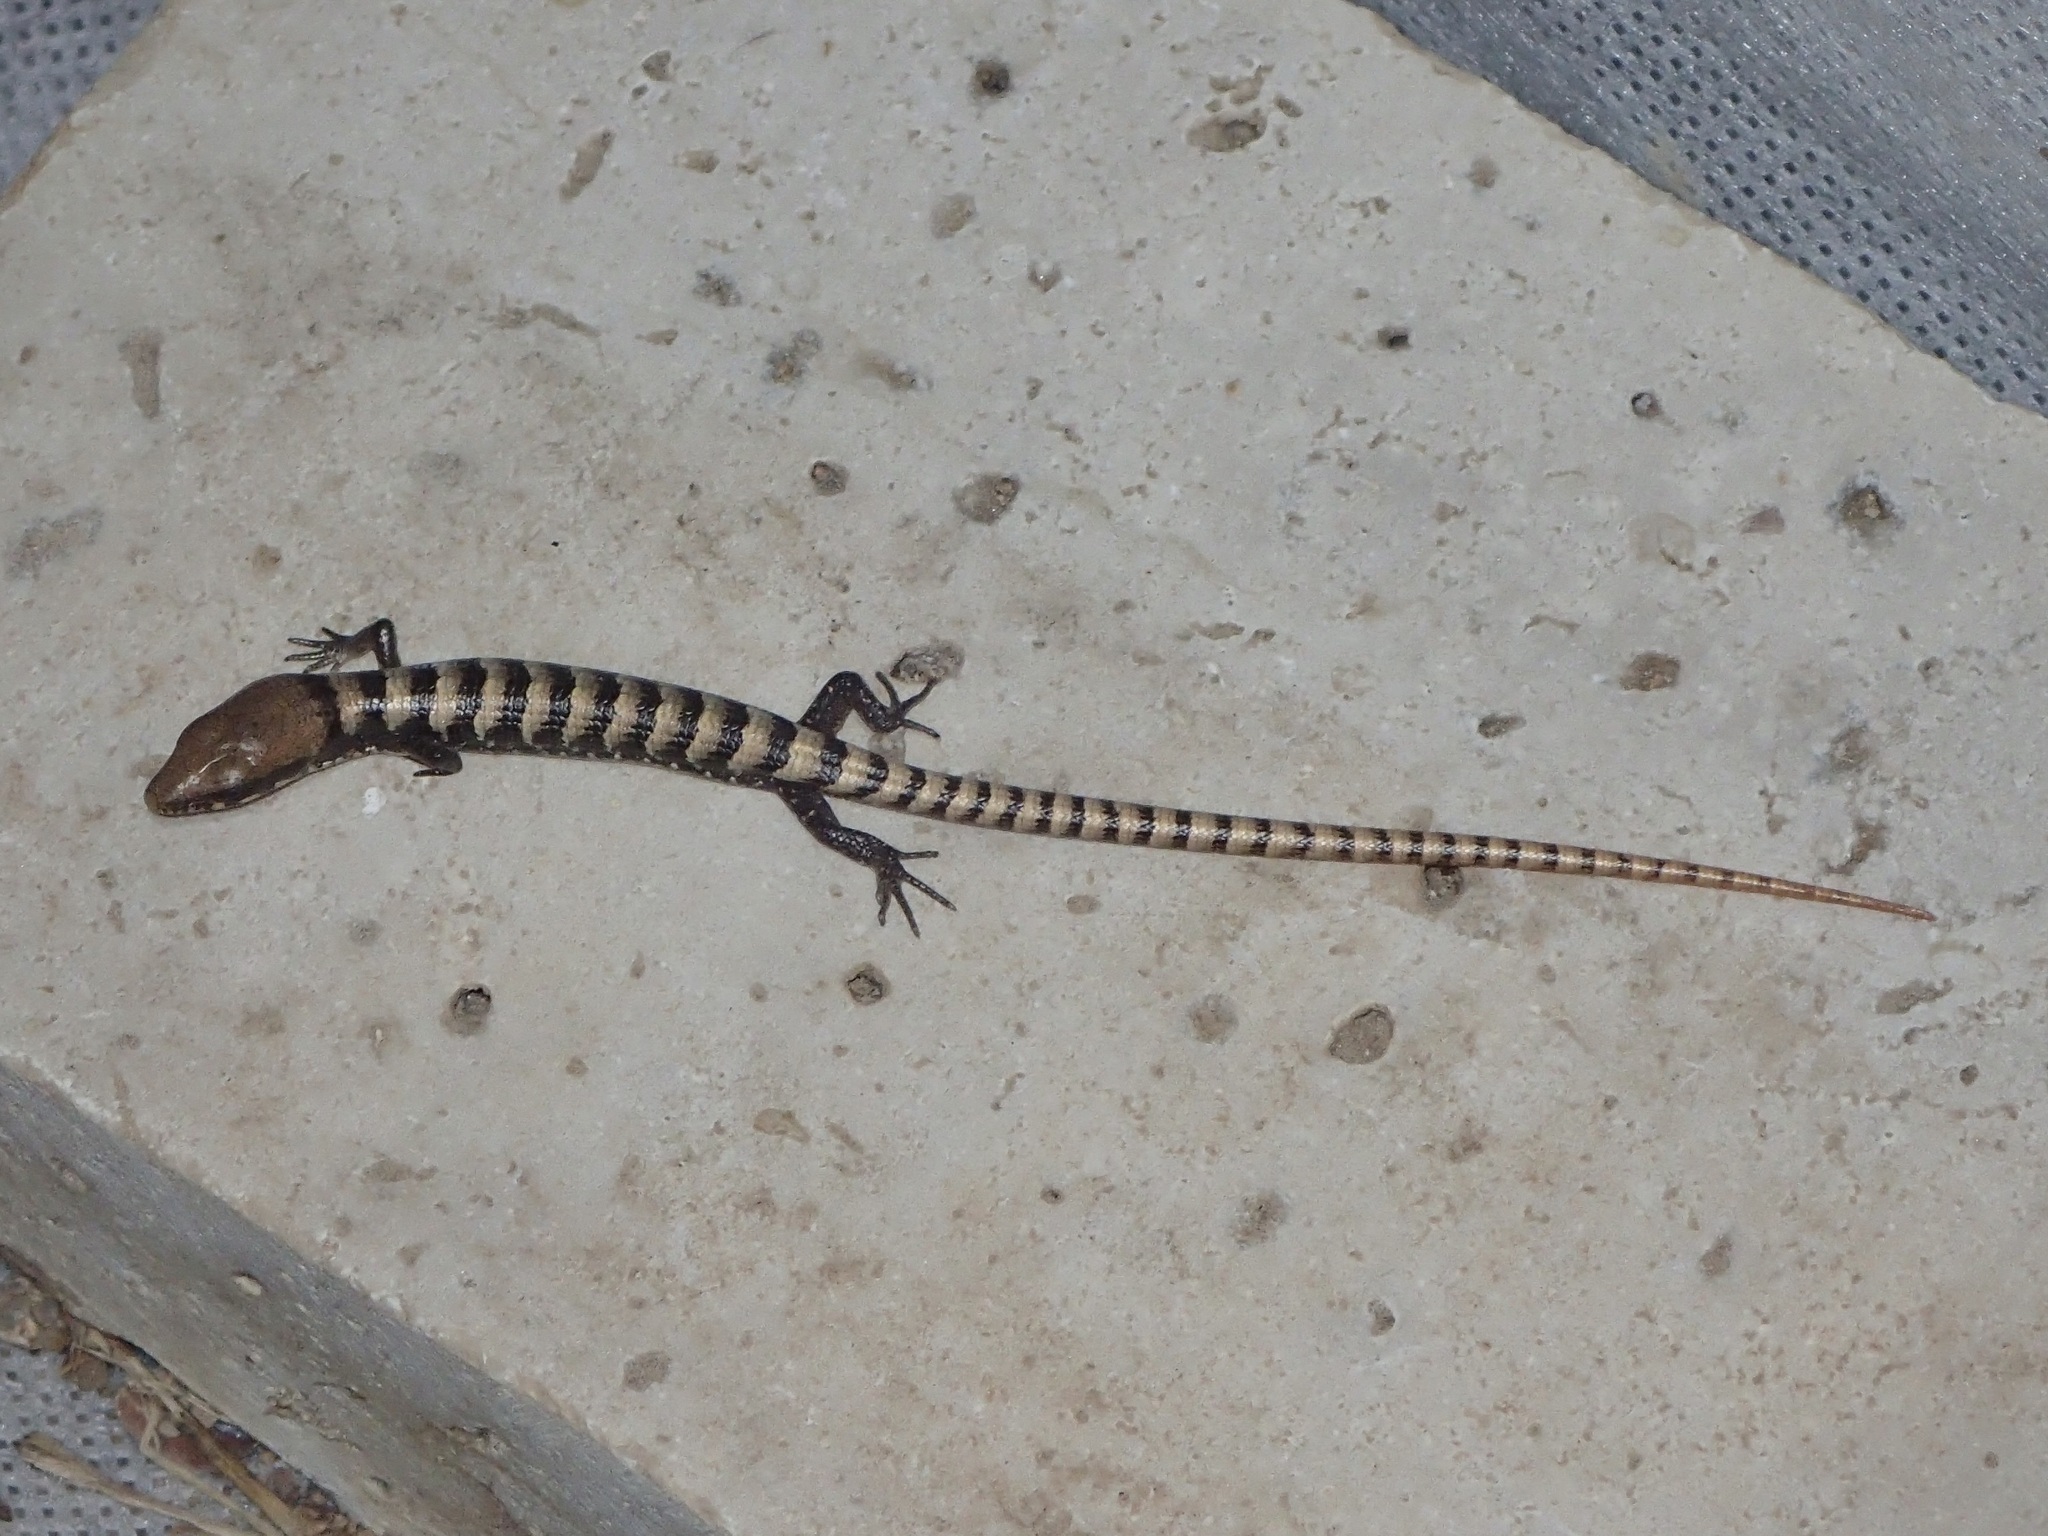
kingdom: Animalia
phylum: Chordata
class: Squamata
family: Anguidae
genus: Elgaria
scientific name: Elgaria kingii
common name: Madrean alligator lizard
